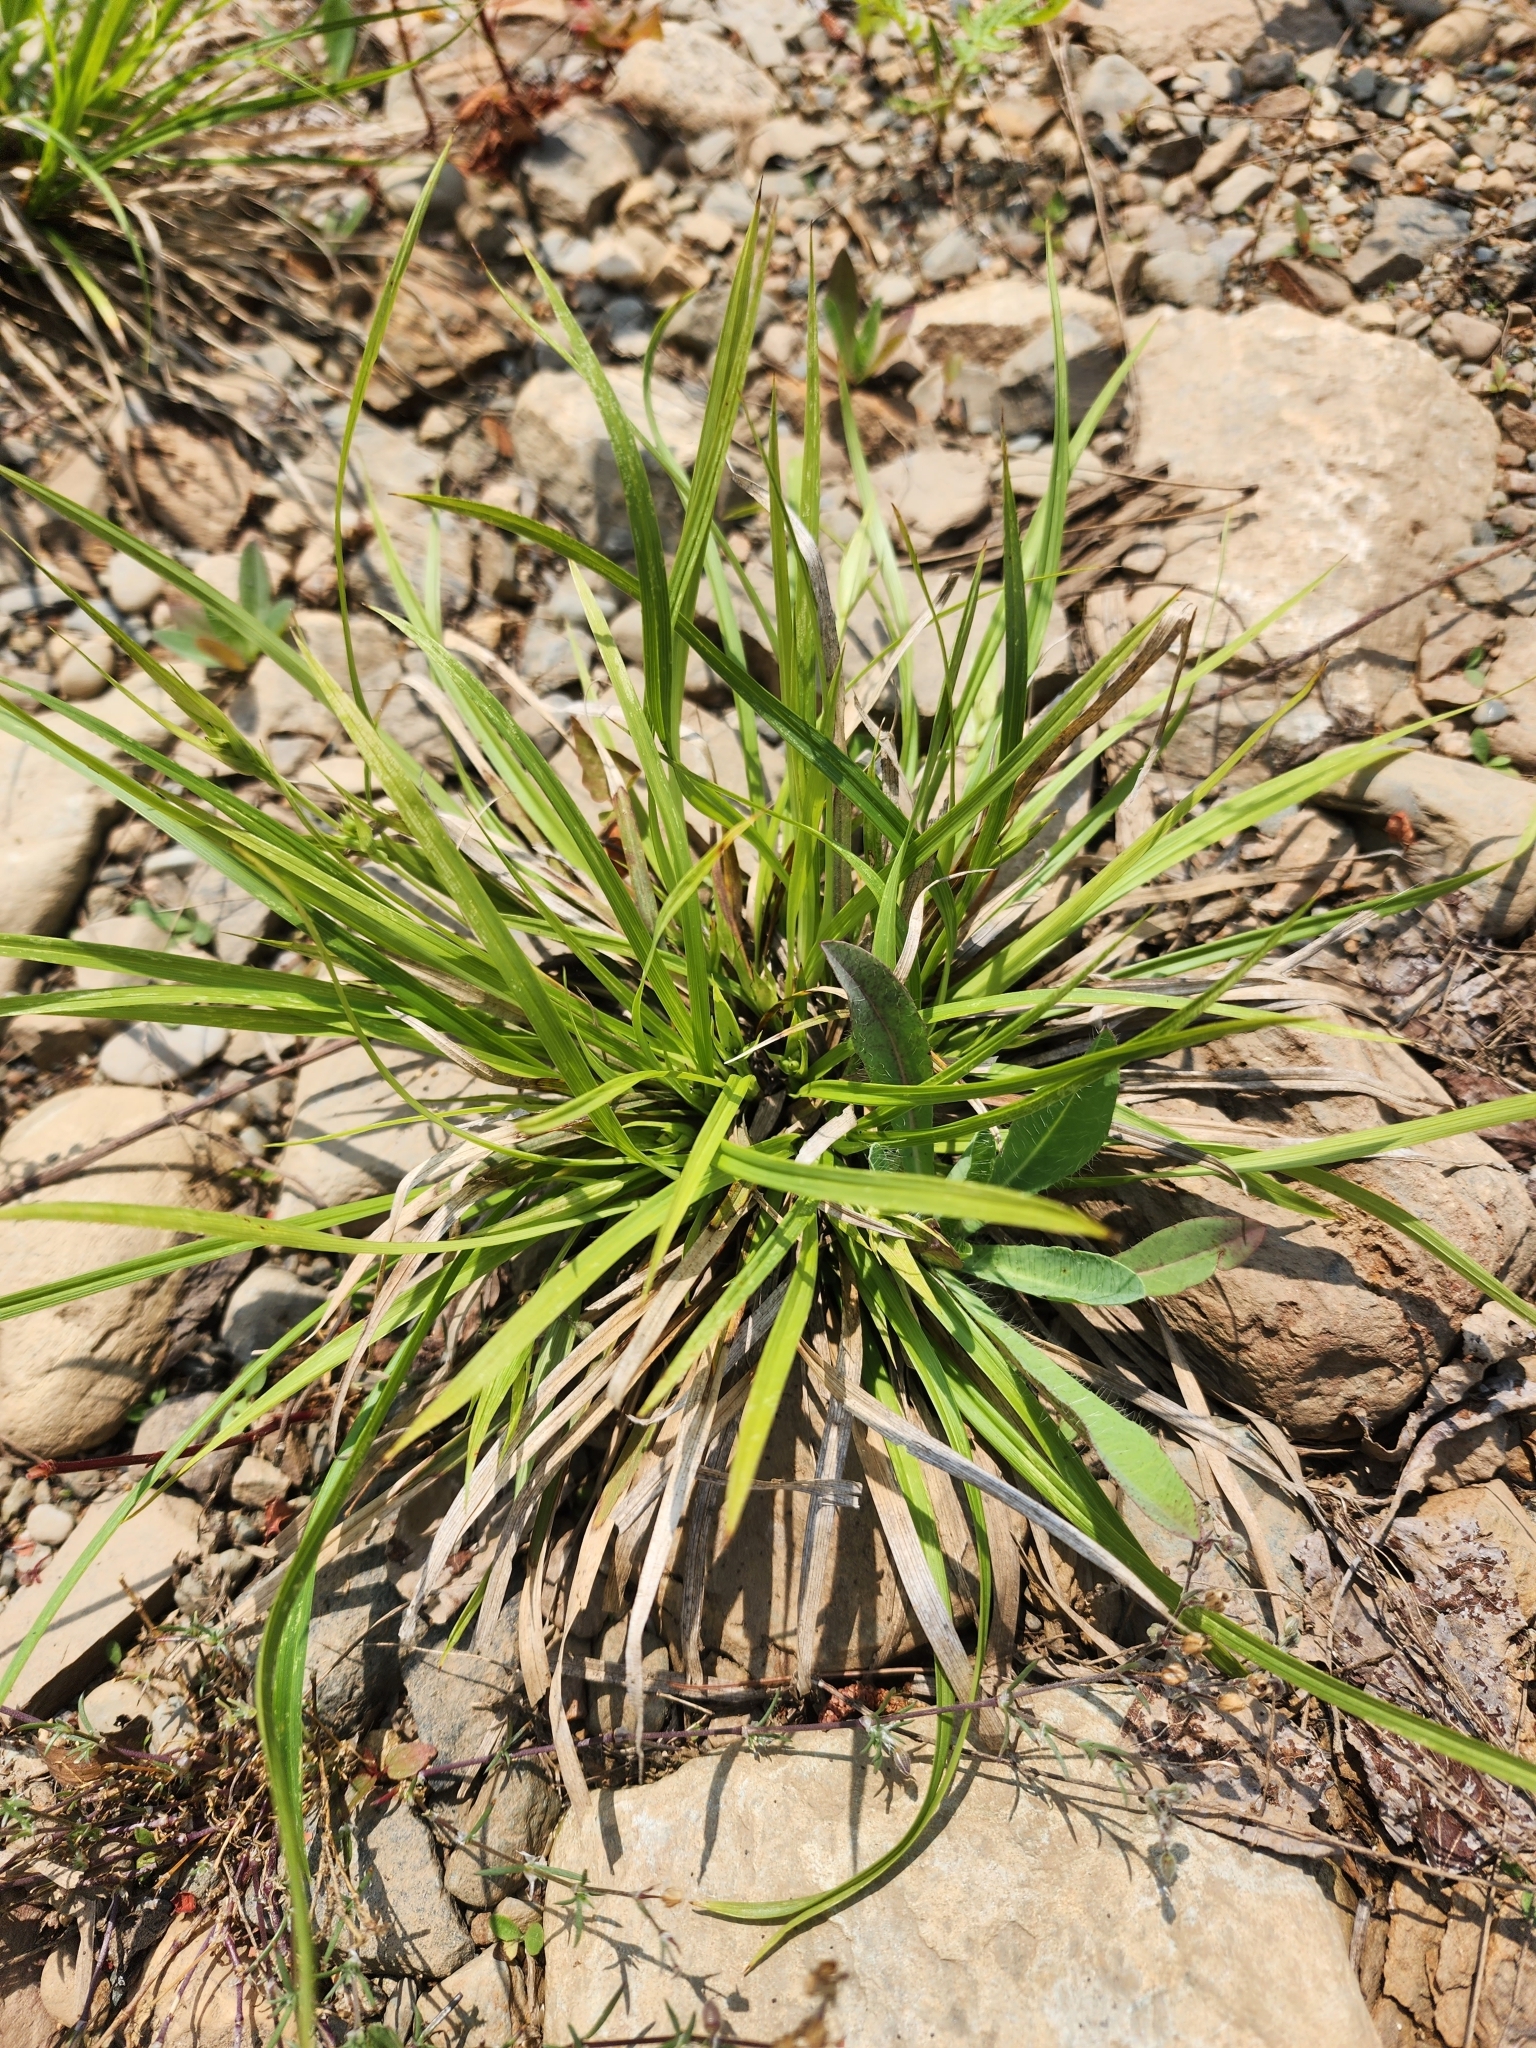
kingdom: Plantae
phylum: Tracheophyta
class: Liliopsida
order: Poales
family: Cyperaceae
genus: Carex
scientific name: Carex backii
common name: Back's sedge
